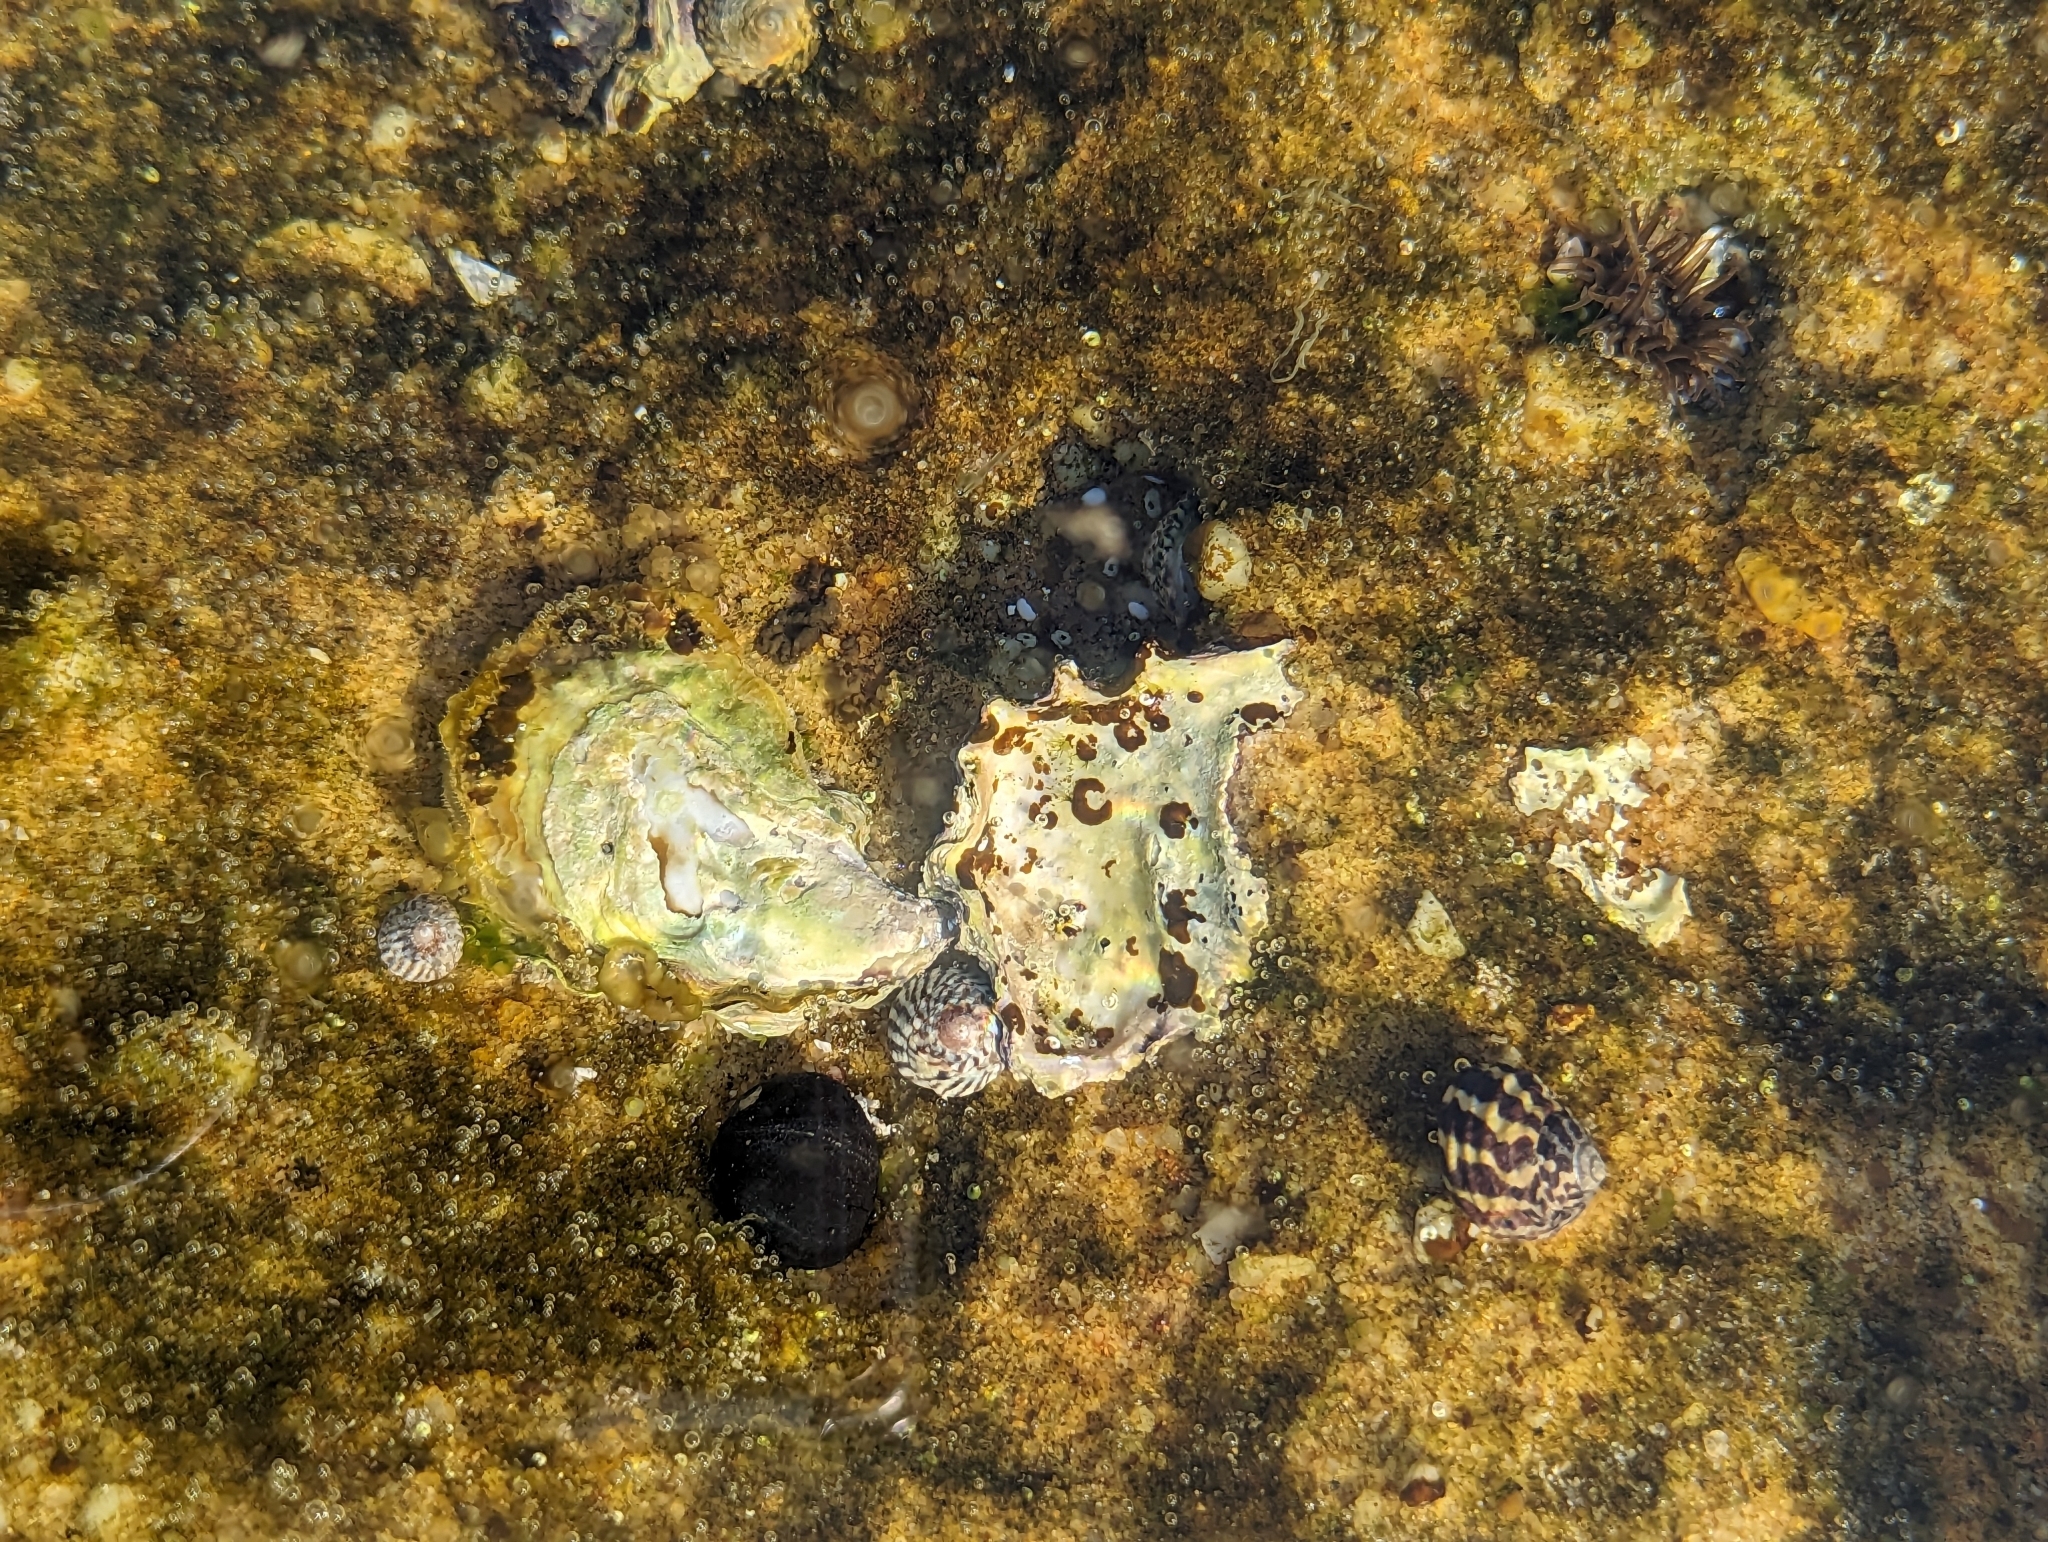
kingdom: Animalia
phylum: Mollusca
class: Bivalvia
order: Ostreida
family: Ostreidae
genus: Saccostrea
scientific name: Saccostrea glomerata
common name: Sydney cupped oyster
